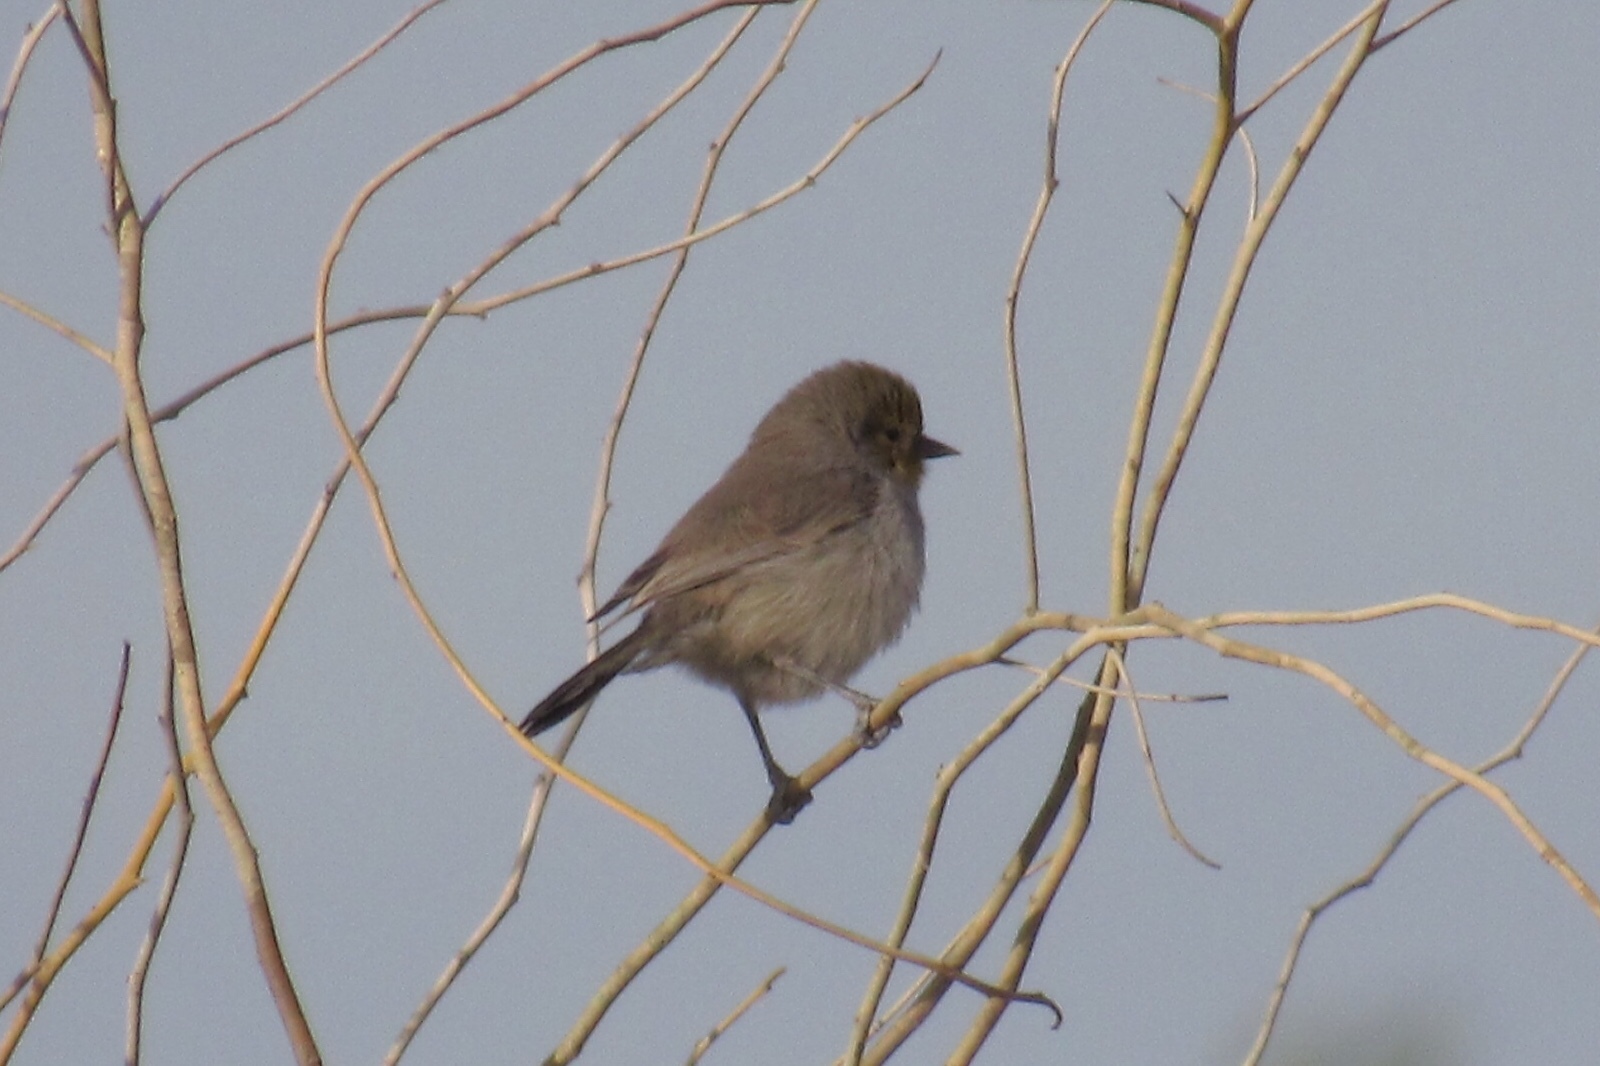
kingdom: Animalia
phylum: Chordata
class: Aves
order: Passeriformes
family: Remizidae
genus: Auriparus
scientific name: Auriparus flaviceps
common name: Verdin
